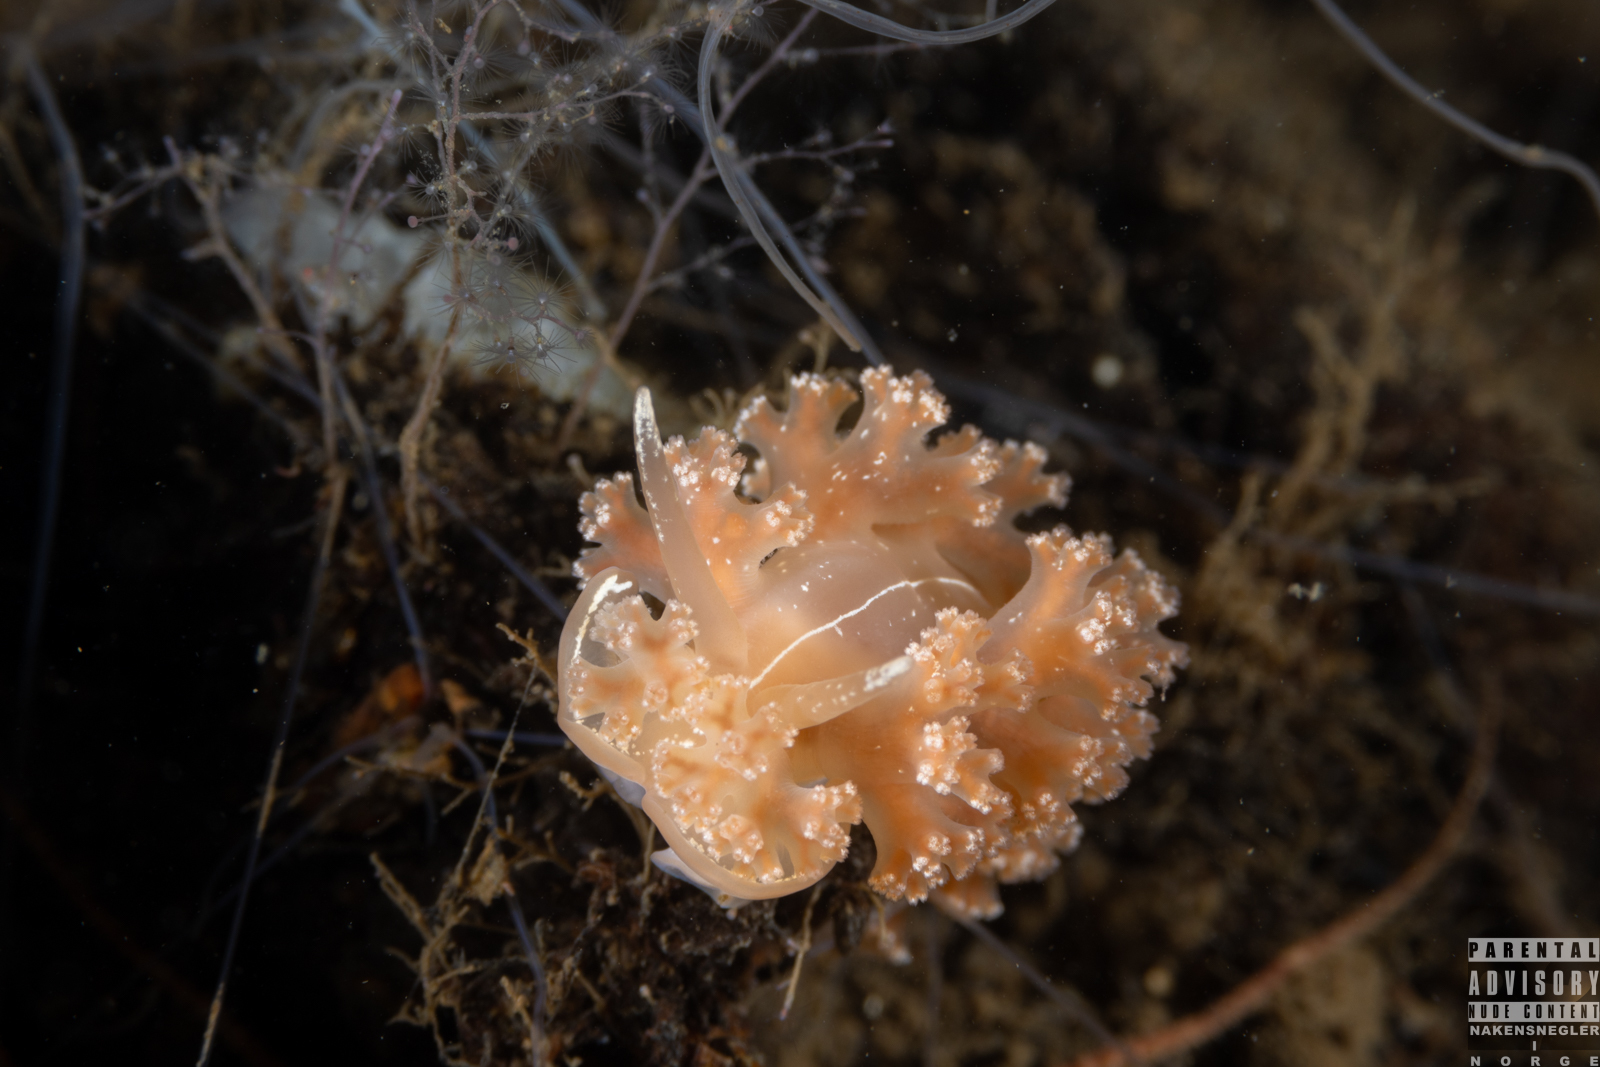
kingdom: Animalia
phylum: Mollusca
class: Gastropoda
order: Nudibranchia
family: Heroidae
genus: Hero
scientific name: Hero formosa
